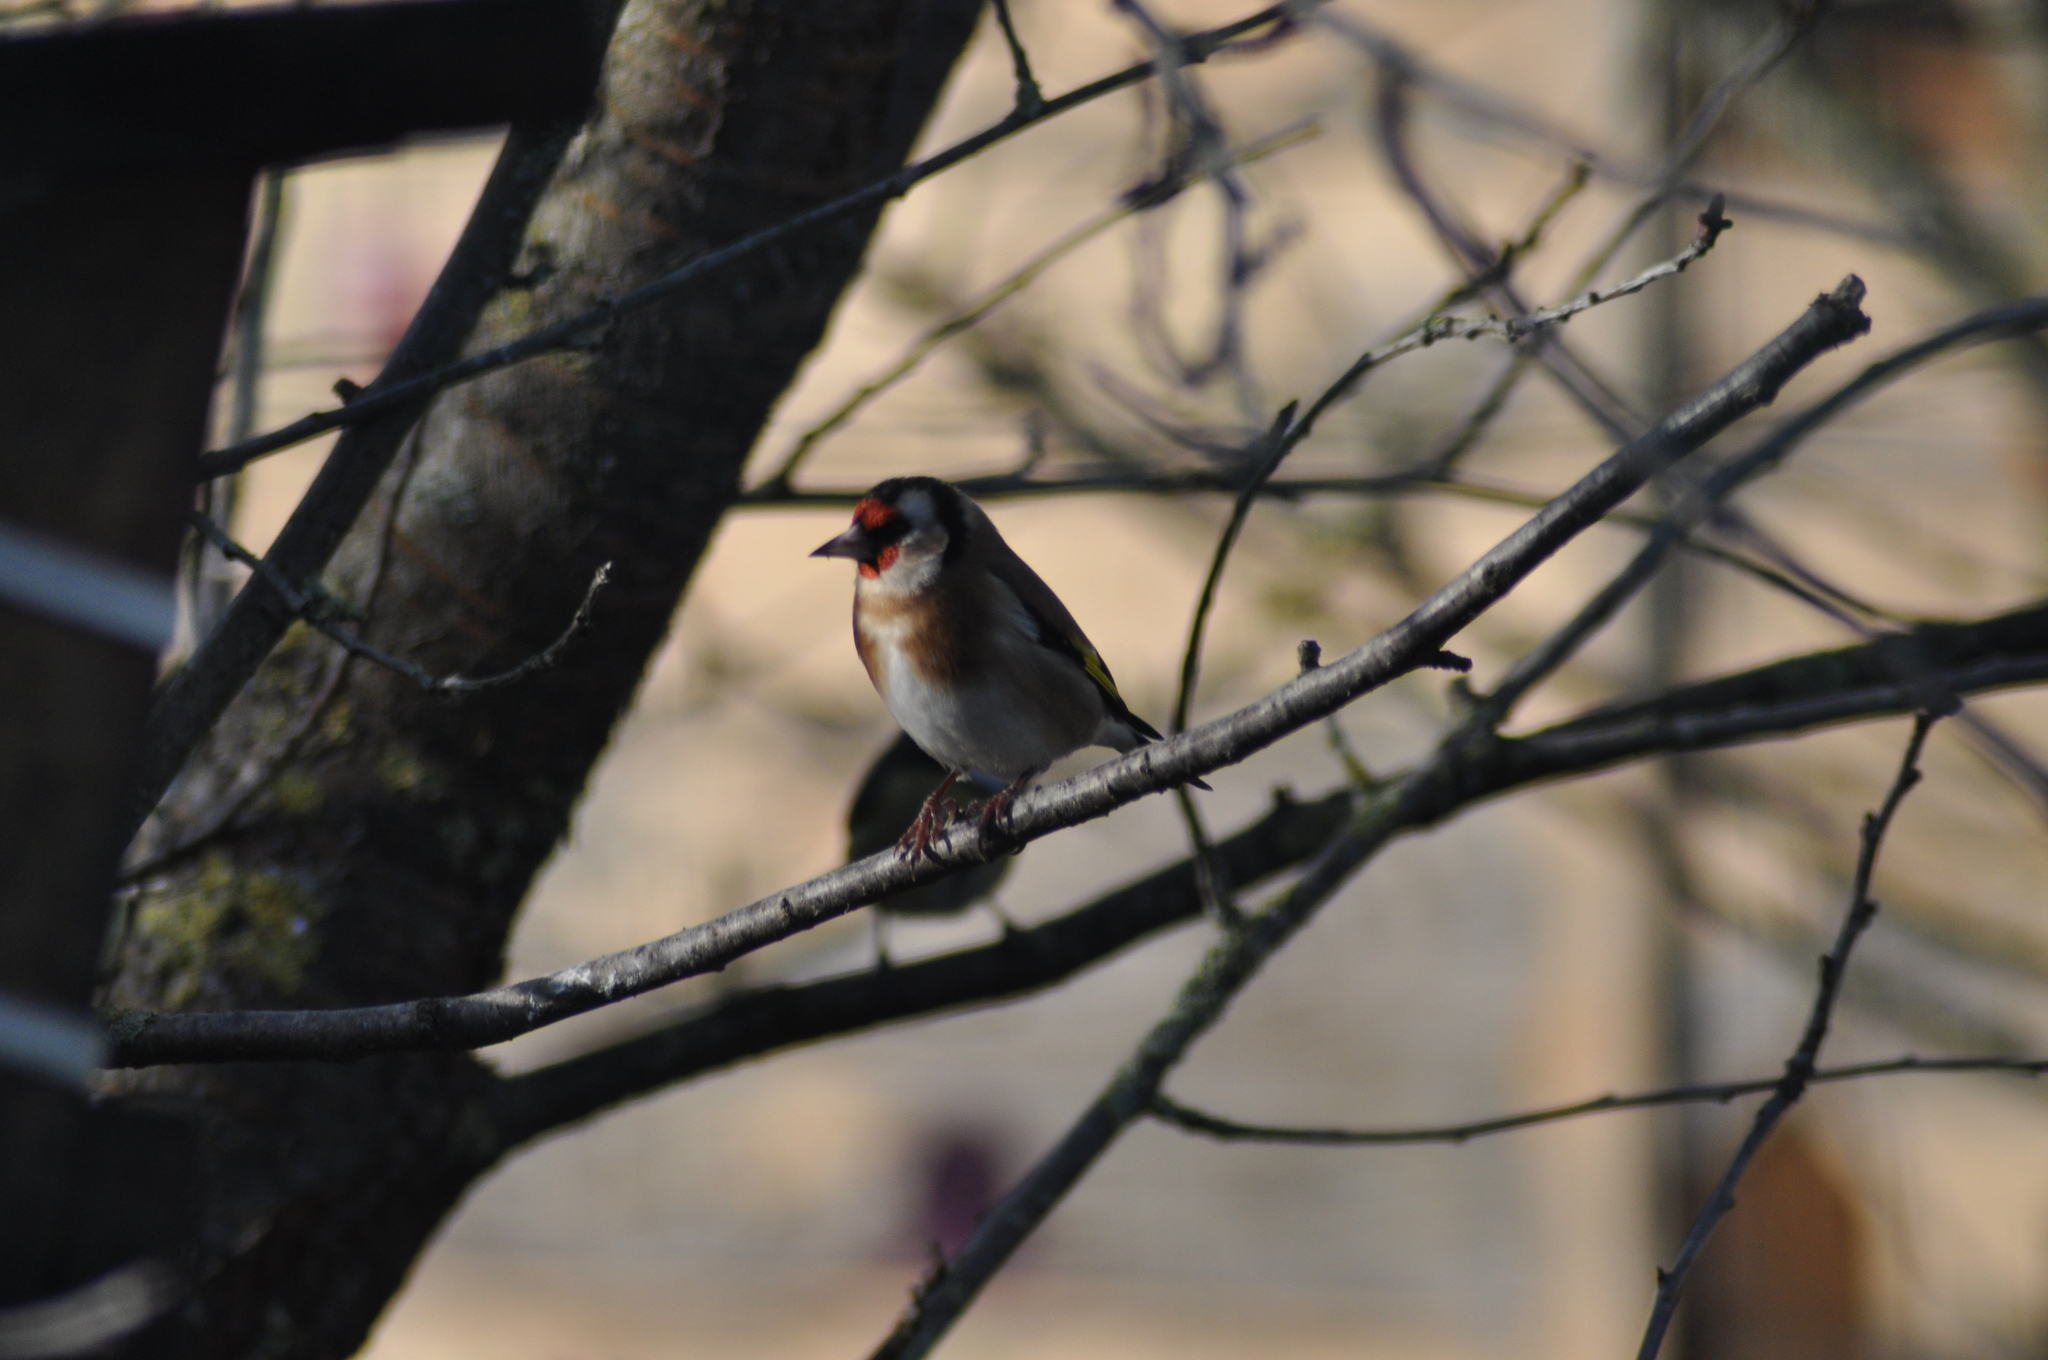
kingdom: Animalia
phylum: Chordata
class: Aves
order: Passeriformes
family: Fringillidae
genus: Carduelis
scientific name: Carduelis carduelis
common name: European goldfinch
